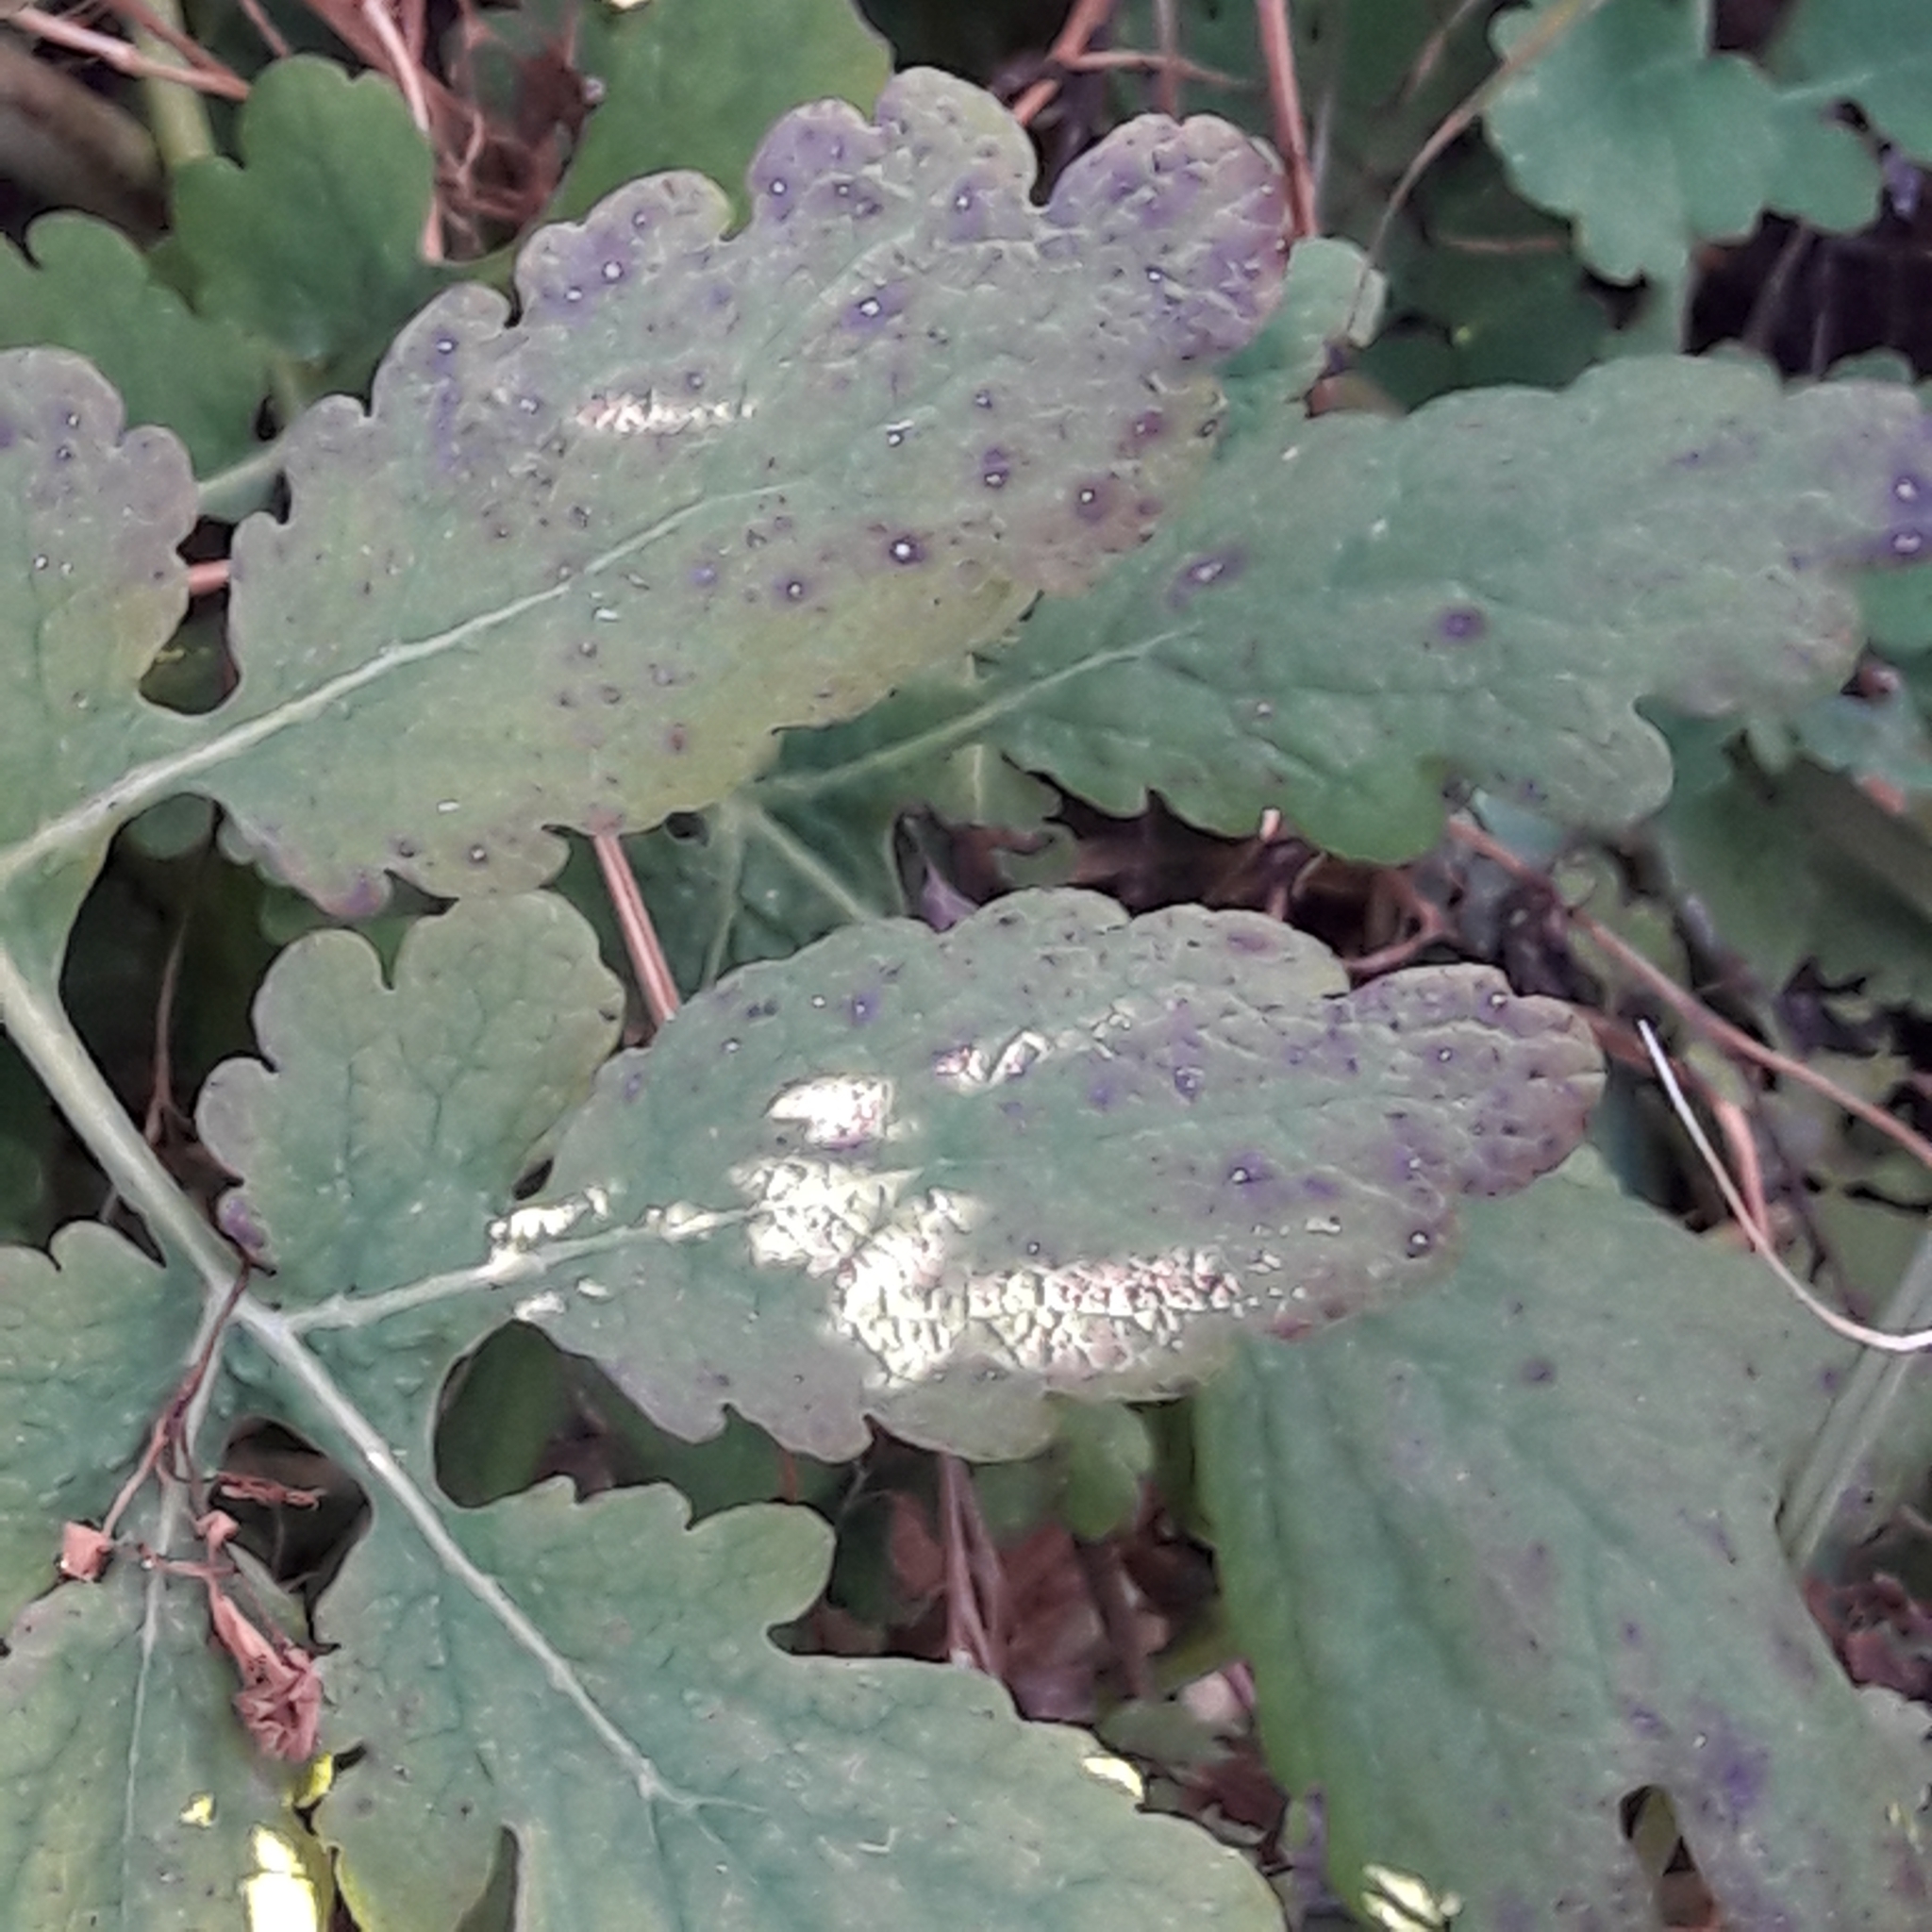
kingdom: Plantae
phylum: Tracheophyta
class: Magnoliopsida
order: Ranunculales
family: Papaveraceae
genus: Chelidonium
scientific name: Chelidonium majus
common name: Greater celandine
